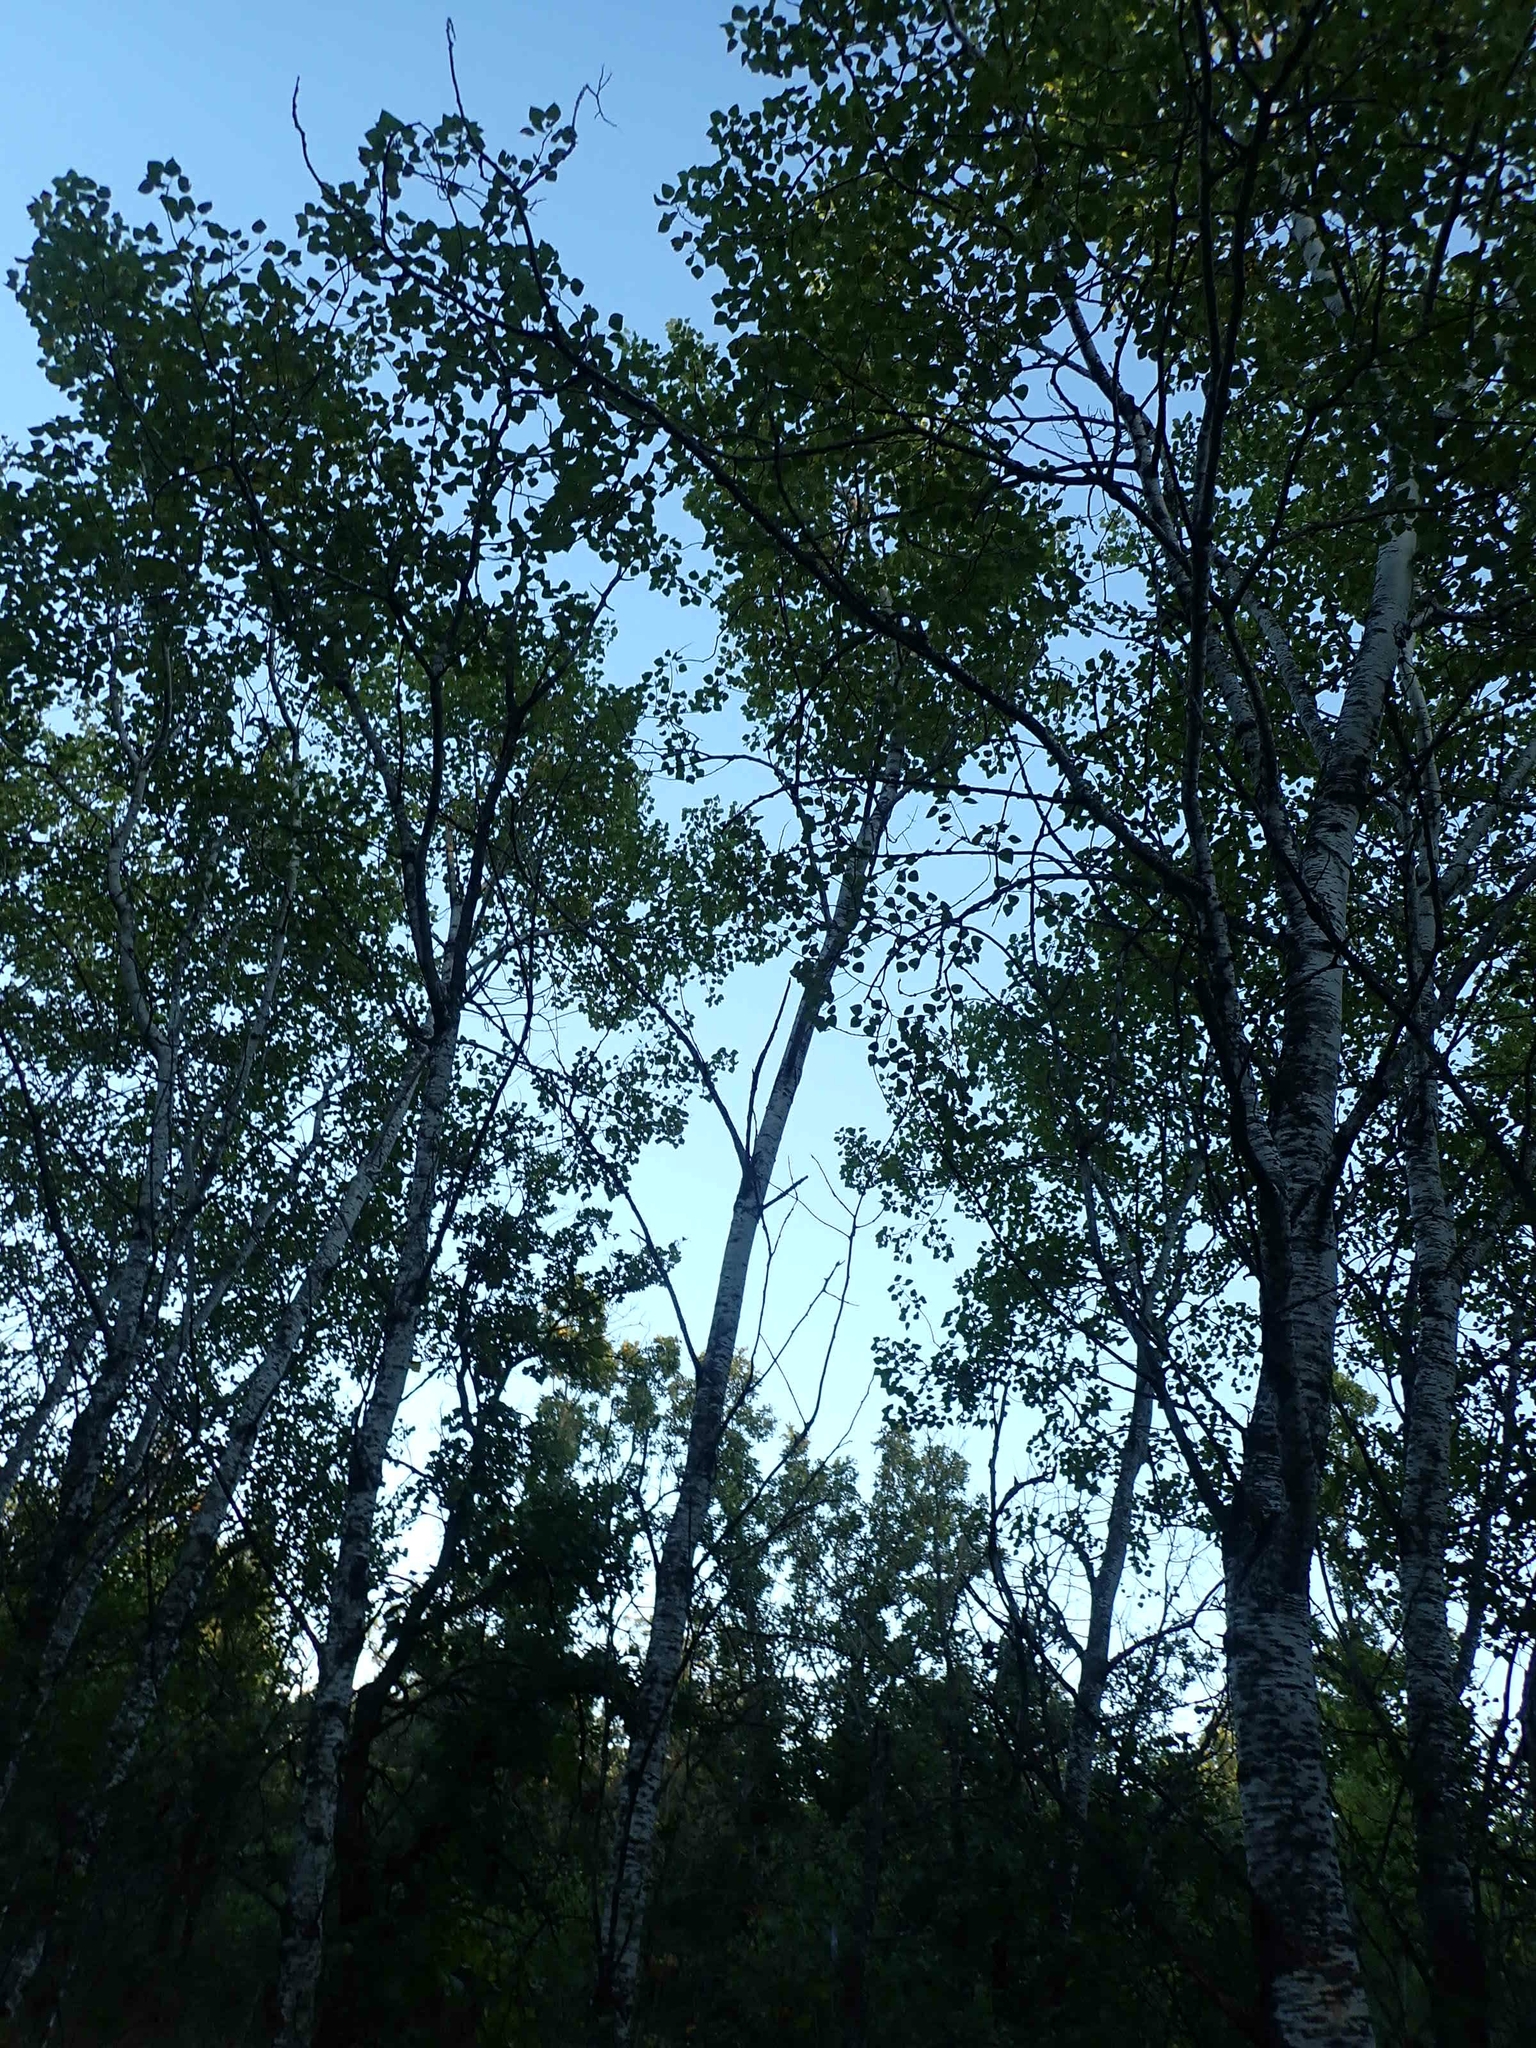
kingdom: Plantae
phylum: Tracheophyta
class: Magnoliopsida
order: Malpighiales
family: Salicaceae
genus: Populus
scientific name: Populus tremuloides
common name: Quaking aspen
